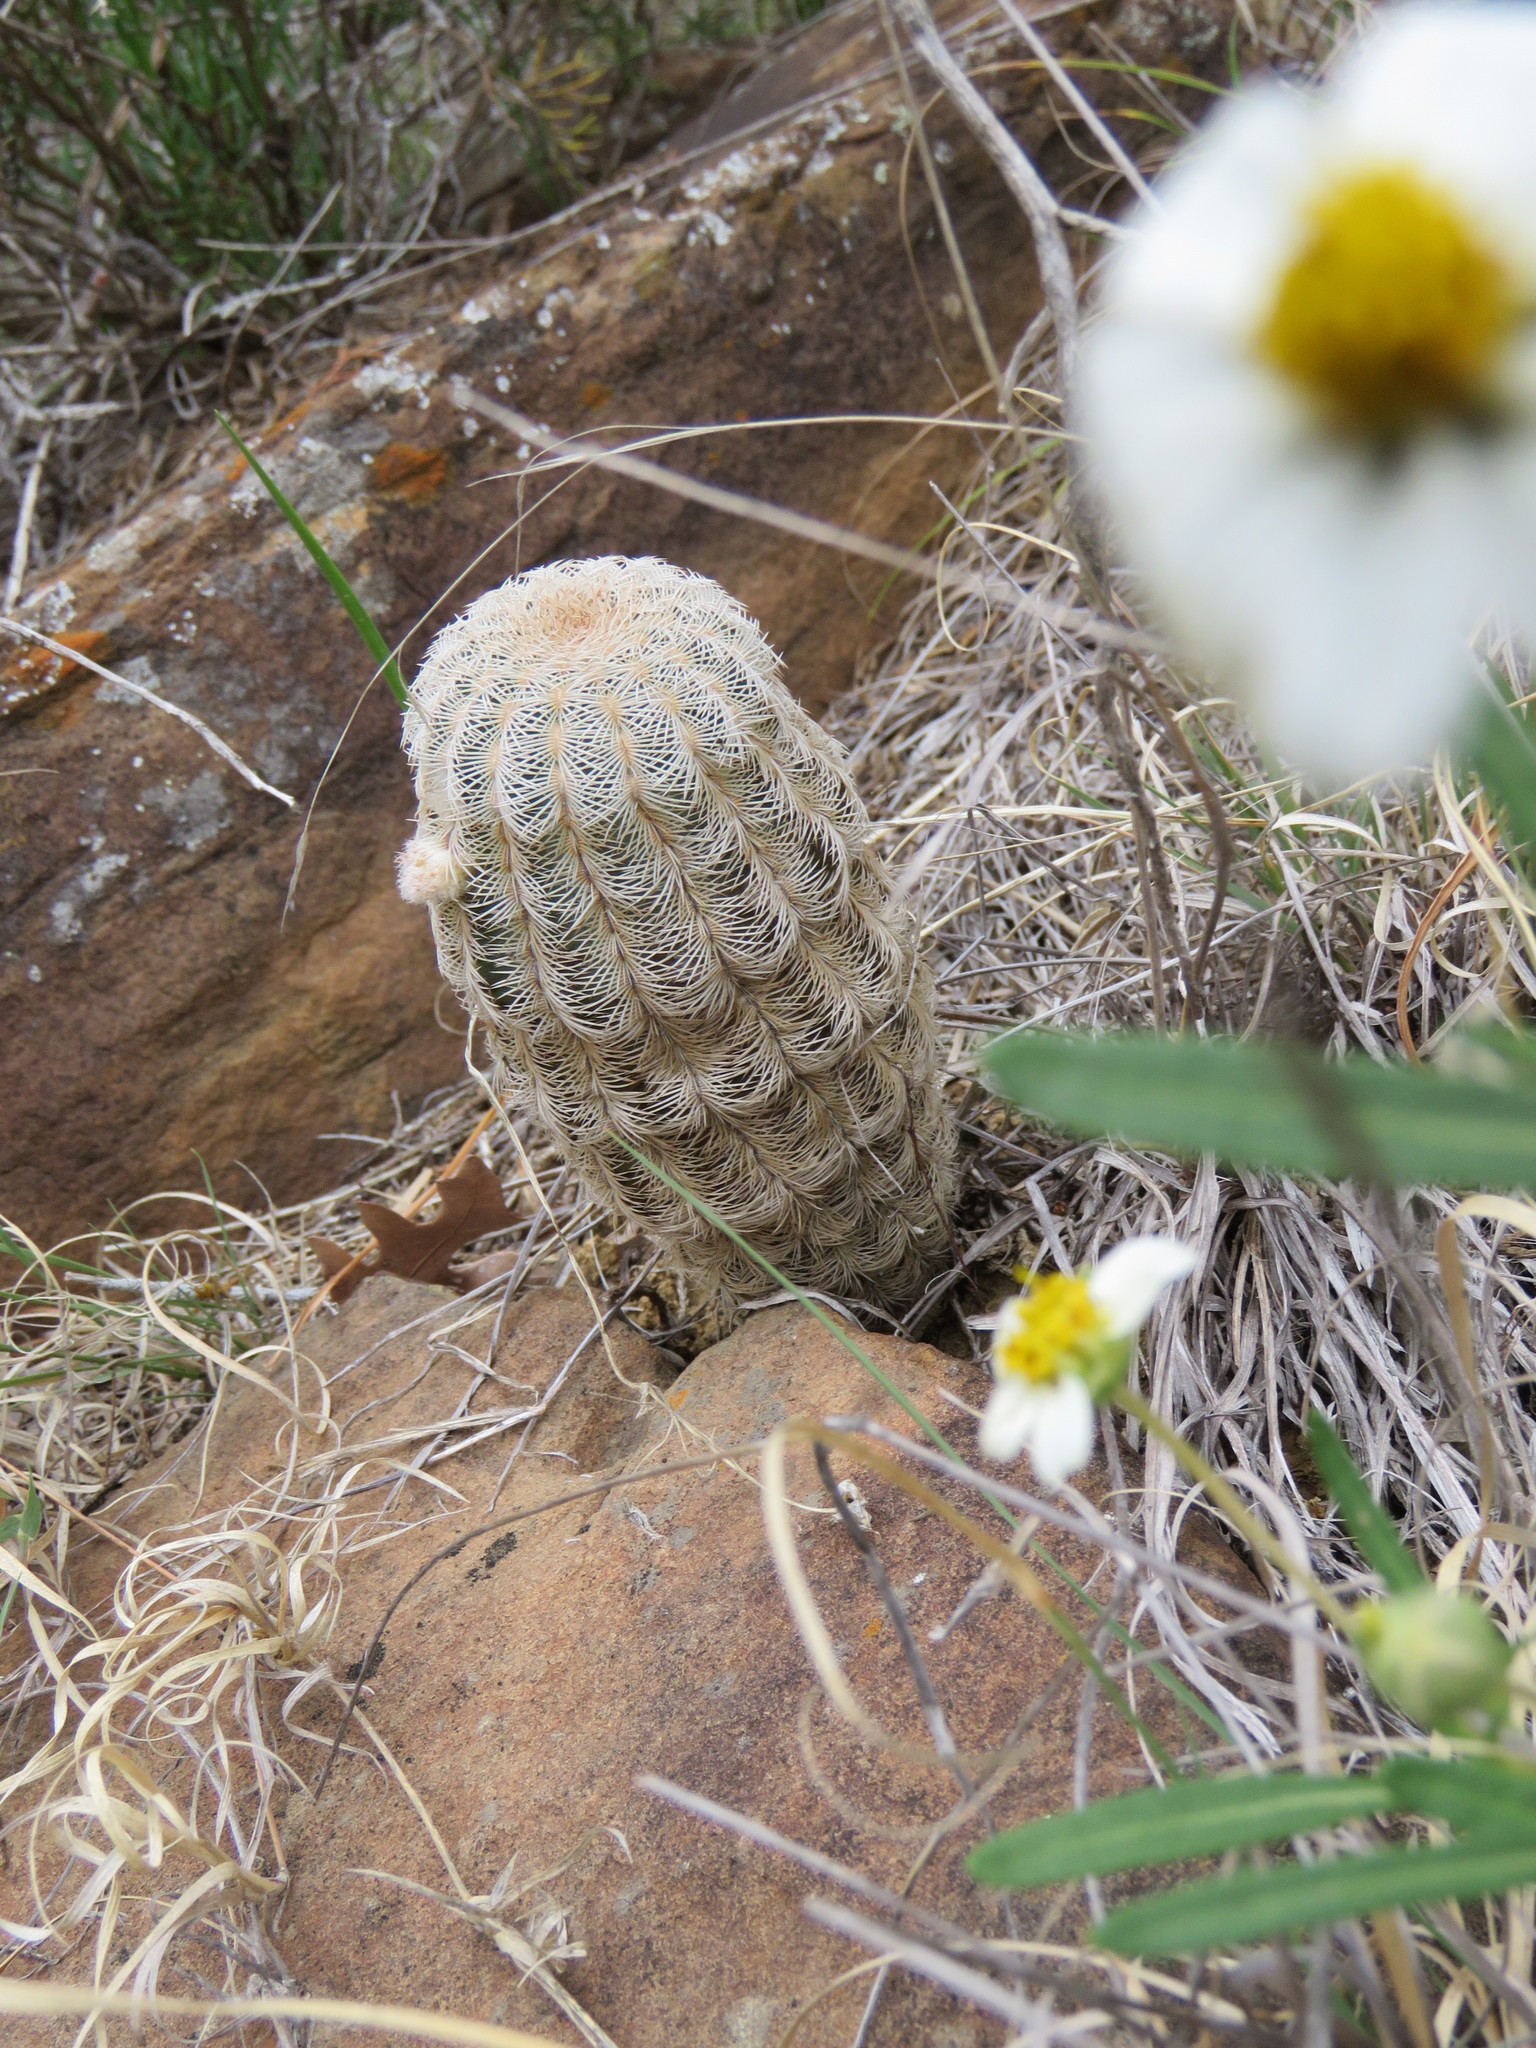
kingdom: Plantae
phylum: Tracheophyta
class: Magnoliopsida
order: Caryophyllales
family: Cactaceae
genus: Echinocereus
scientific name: Echinocereus reichenbachii
